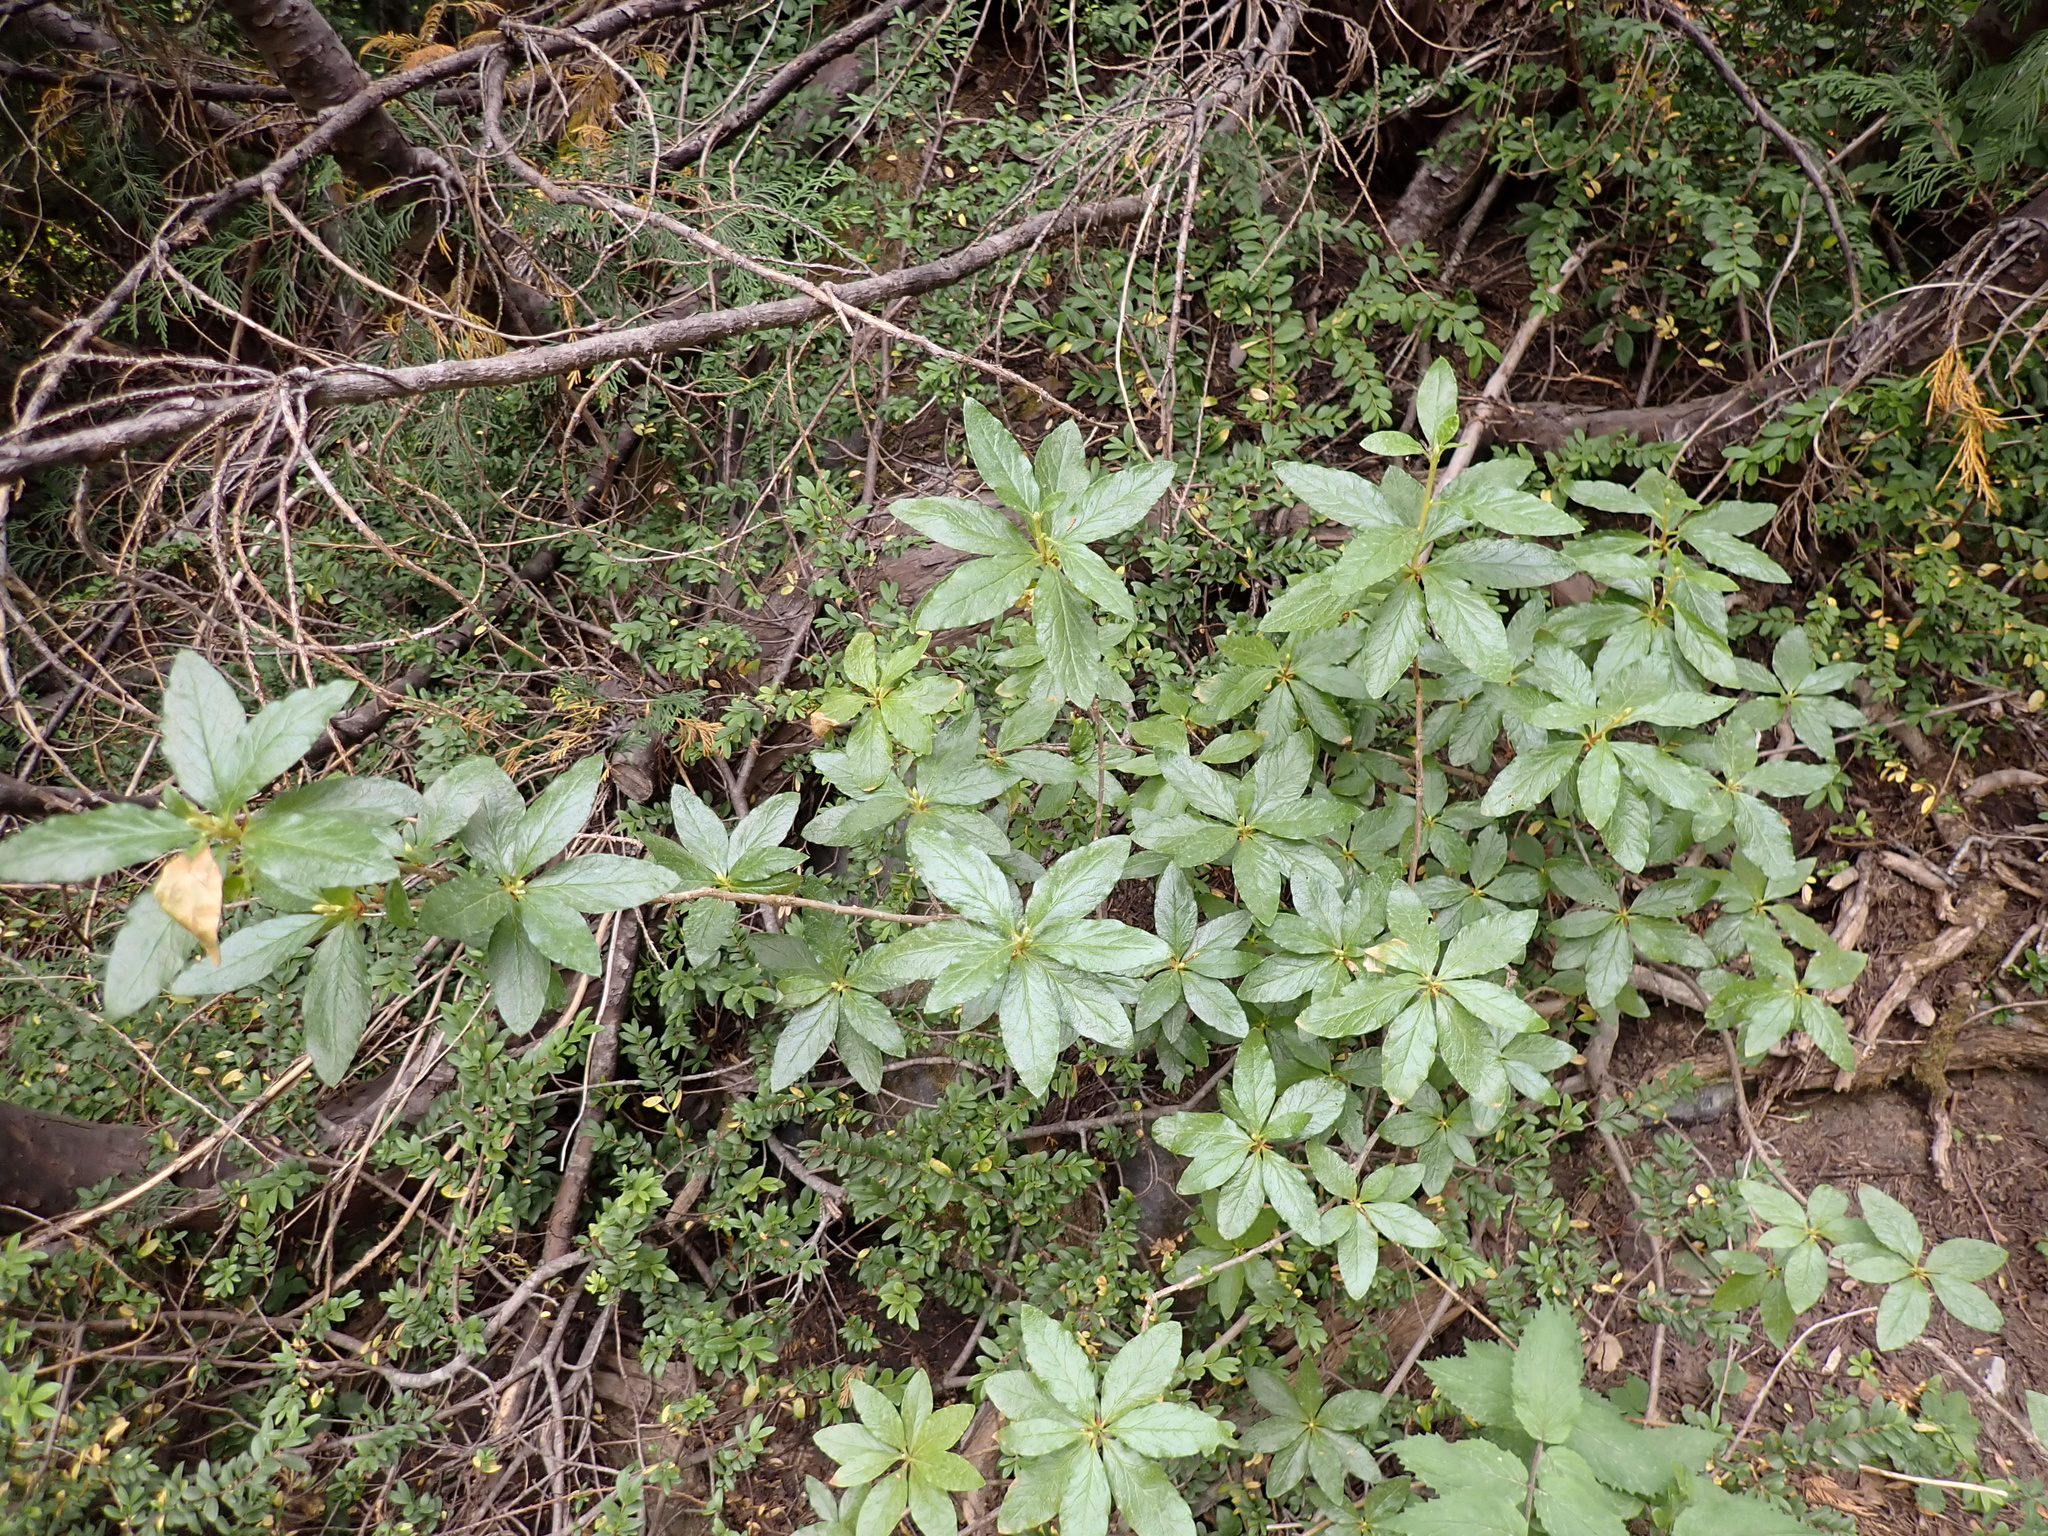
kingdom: Plantae
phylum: Tracheophyta
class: Magnoliopsida
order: Ericales
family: Ericaceae
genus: Rhododendron
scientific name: Rhododendron albiflorum
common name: White rhododendron
